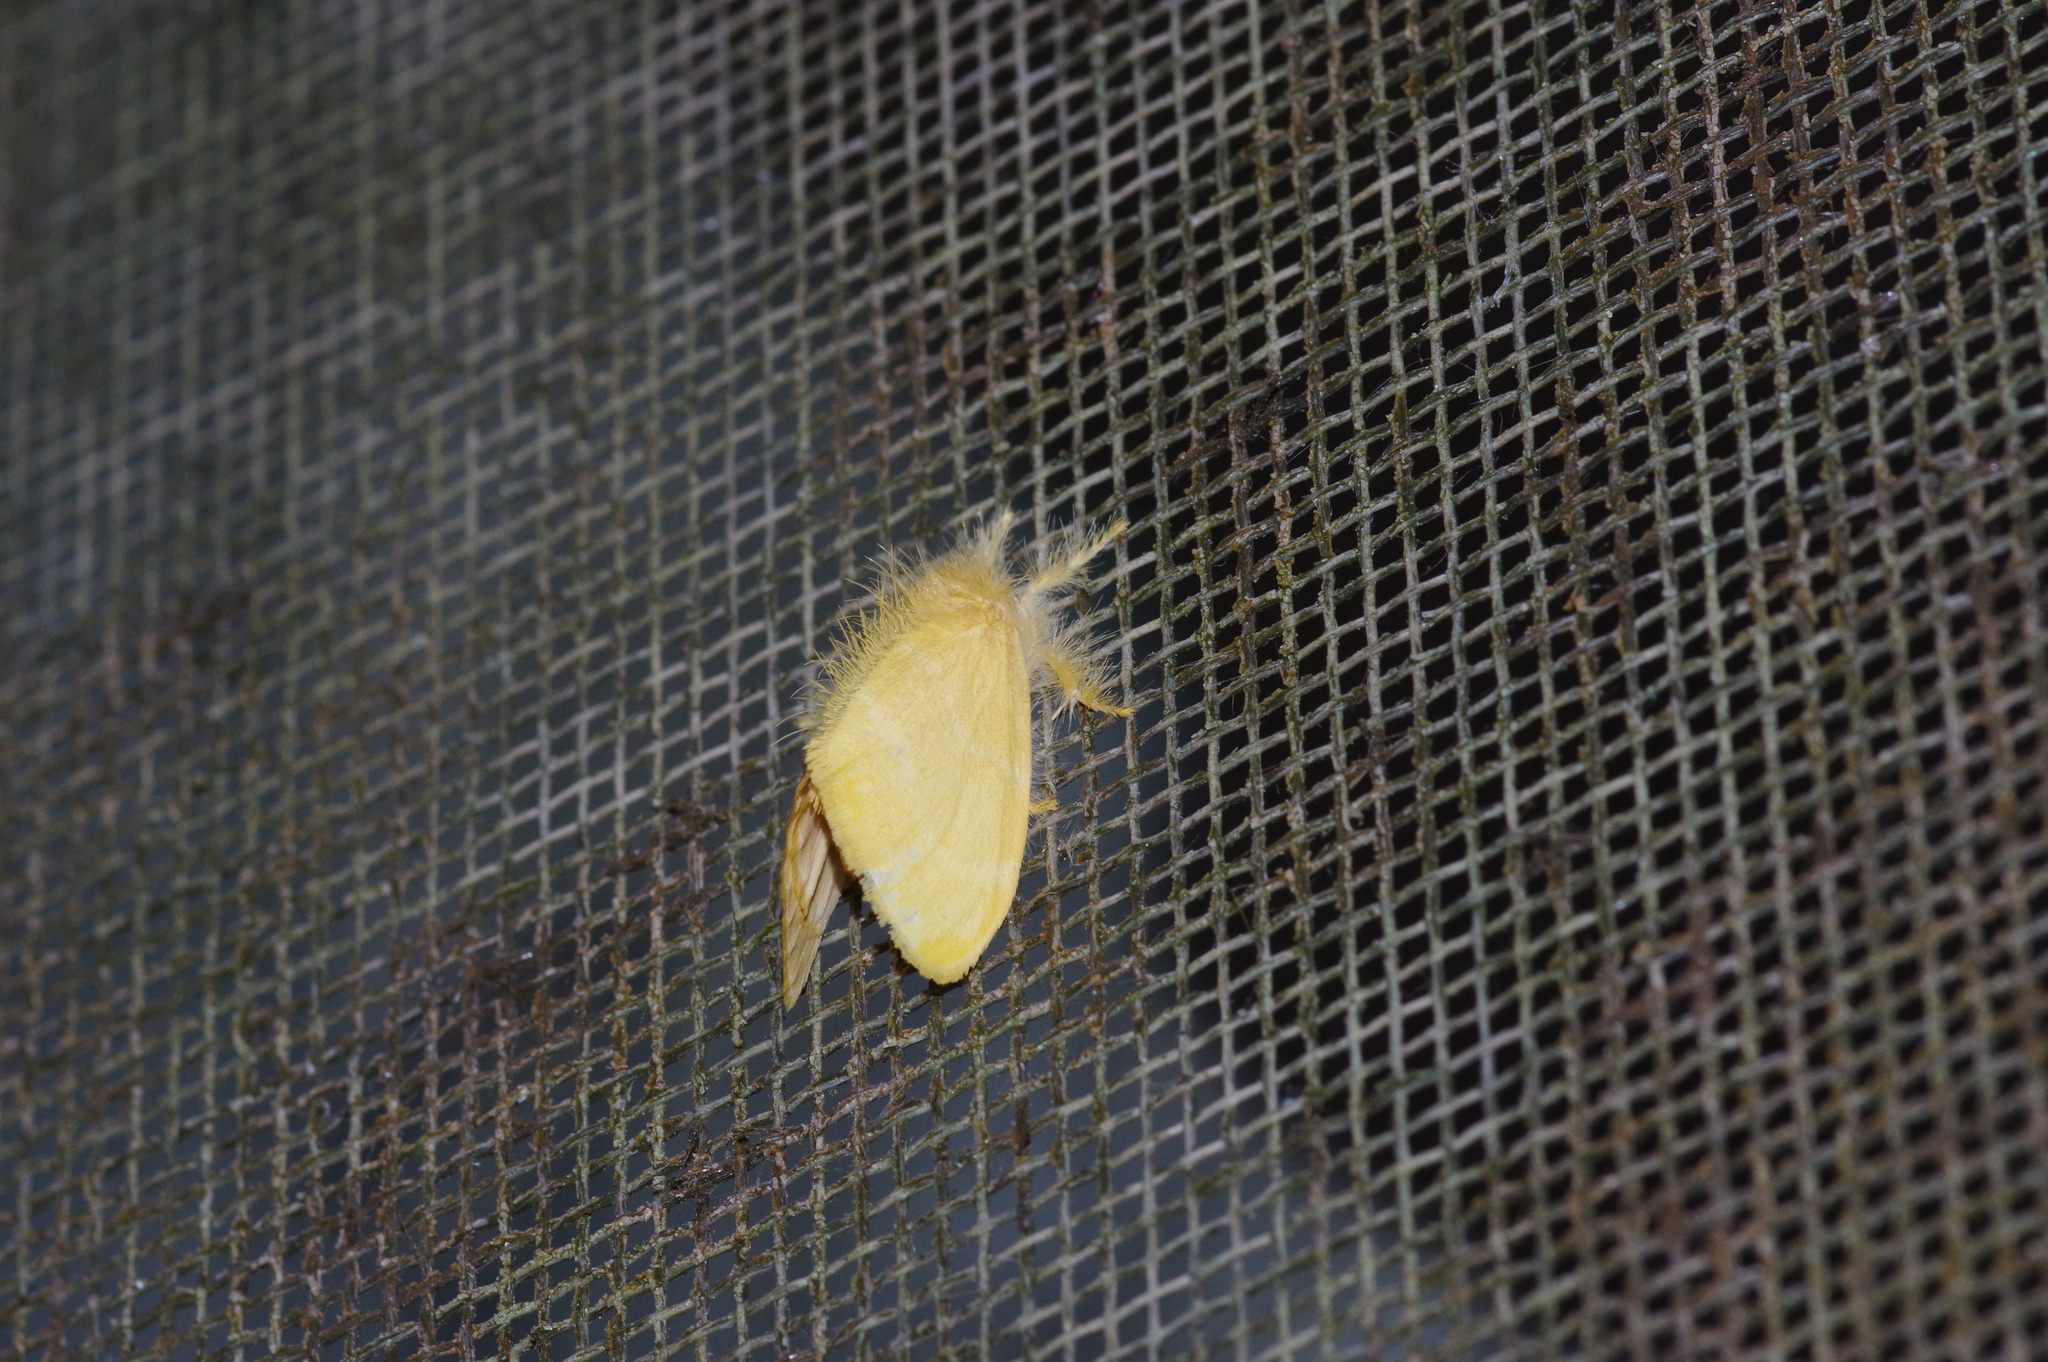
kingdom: Animalia
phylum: Arthropoda
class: Insecta
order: Lepidoptera
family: Erebidae
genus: Euproctis
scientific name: Euproctis taiwana
